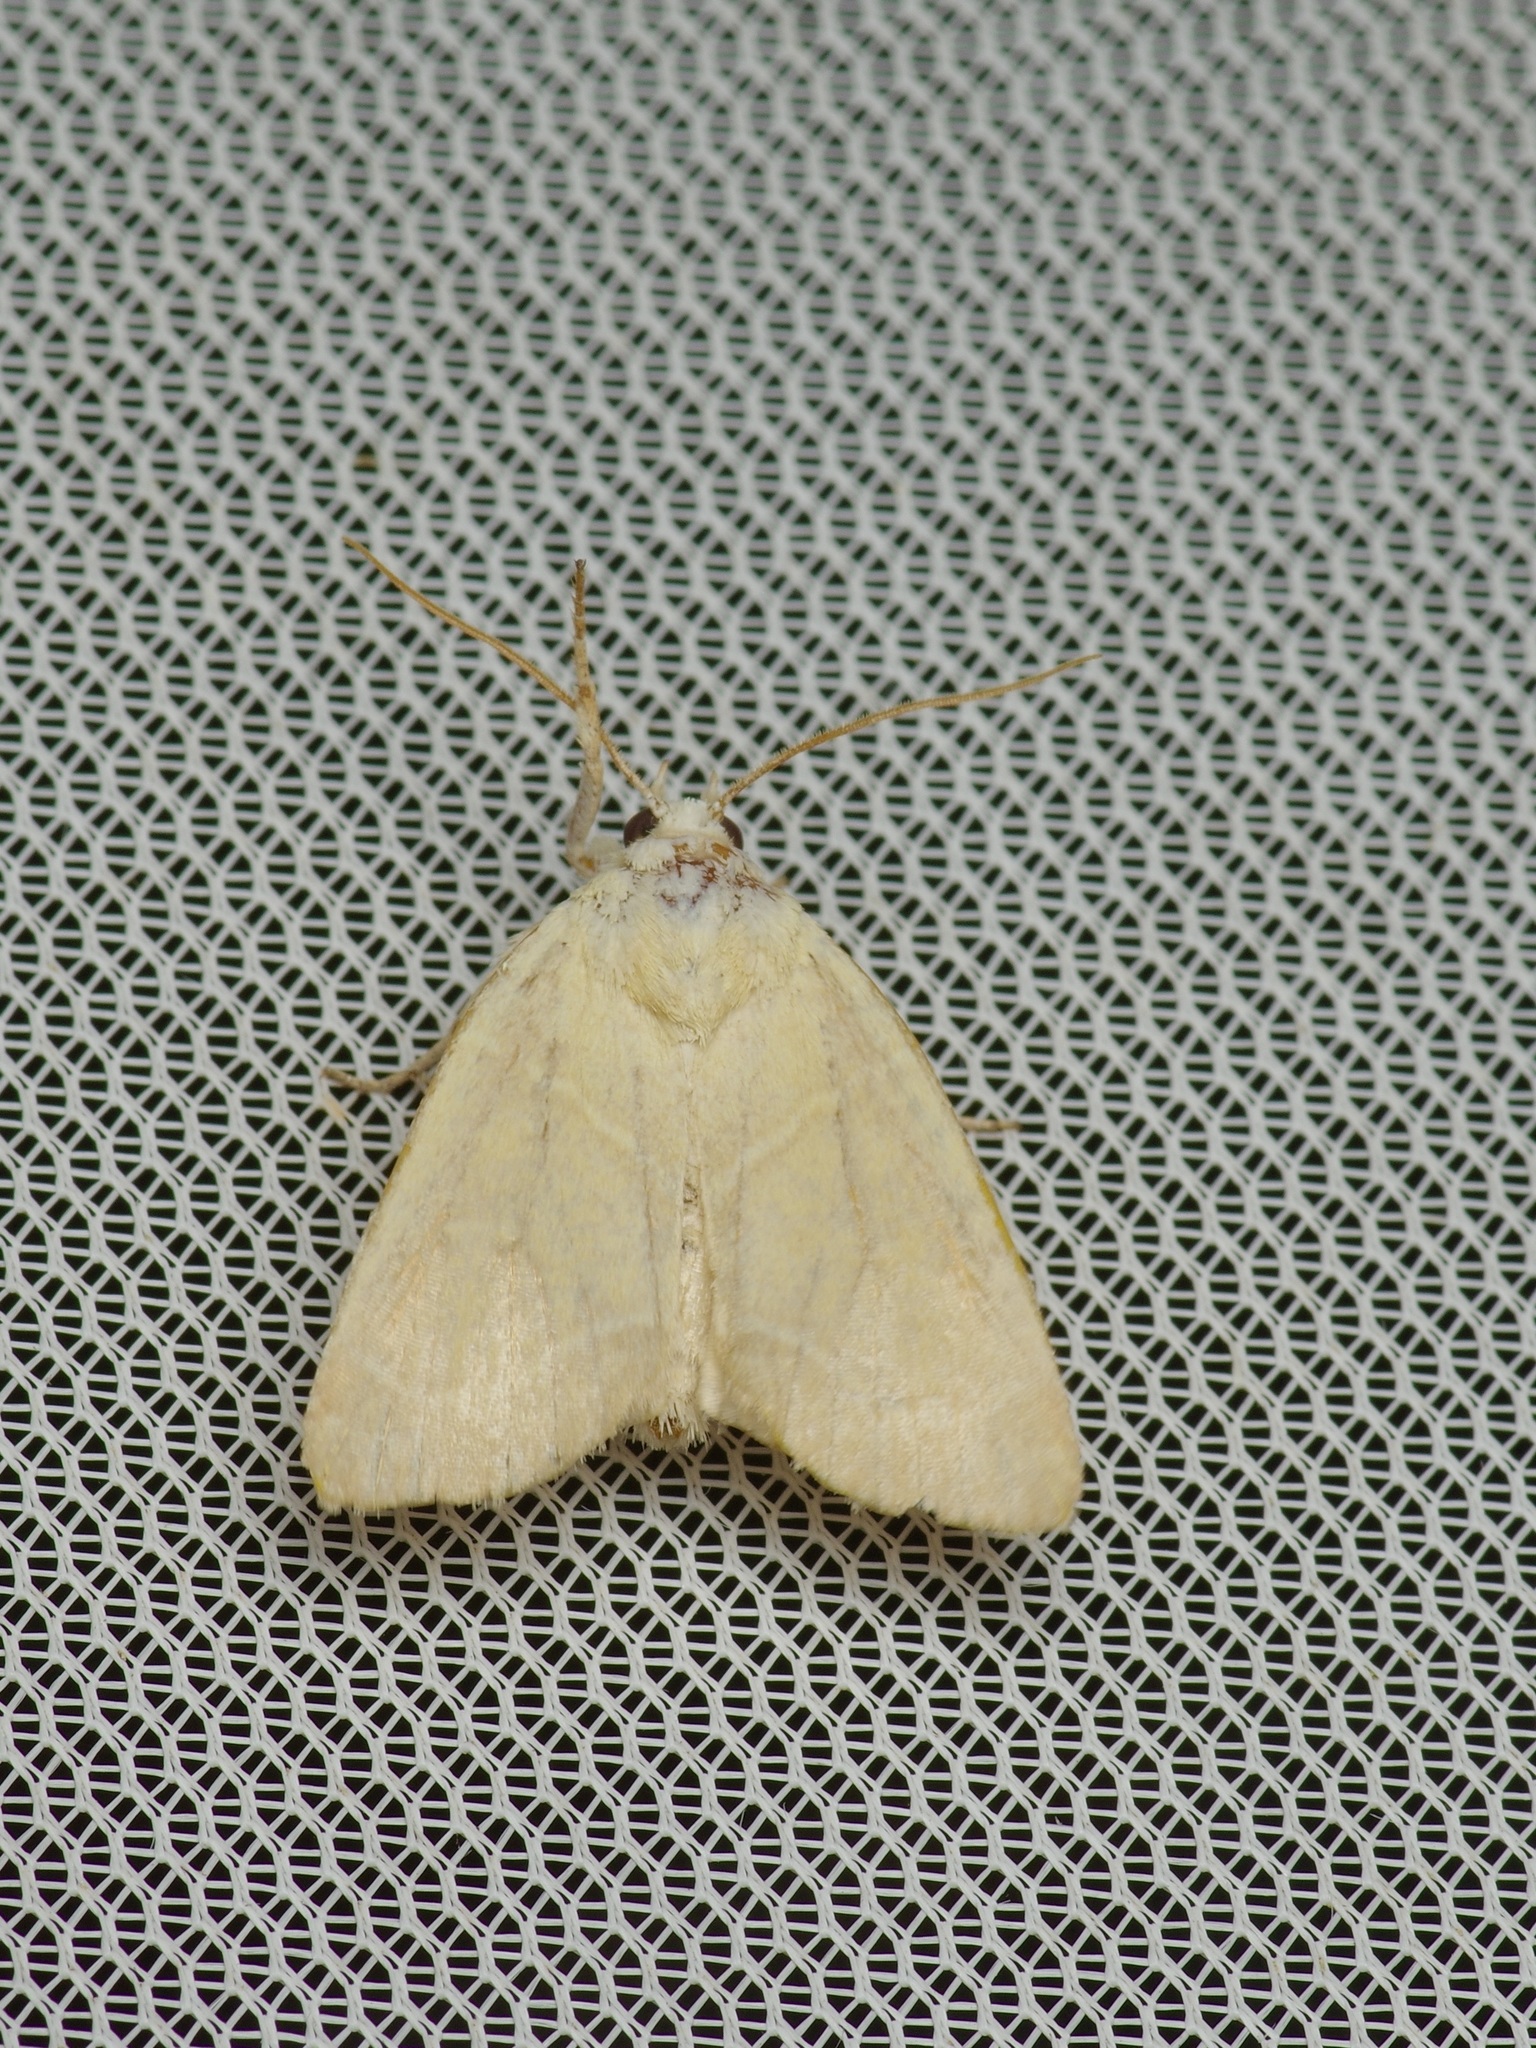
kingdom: Animalia
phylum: Arthropoda
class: Insecta
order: Lepidoptera
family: Noctuidae
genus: Cosmia
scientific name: Cosmia calami
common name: American dun-bar moth
